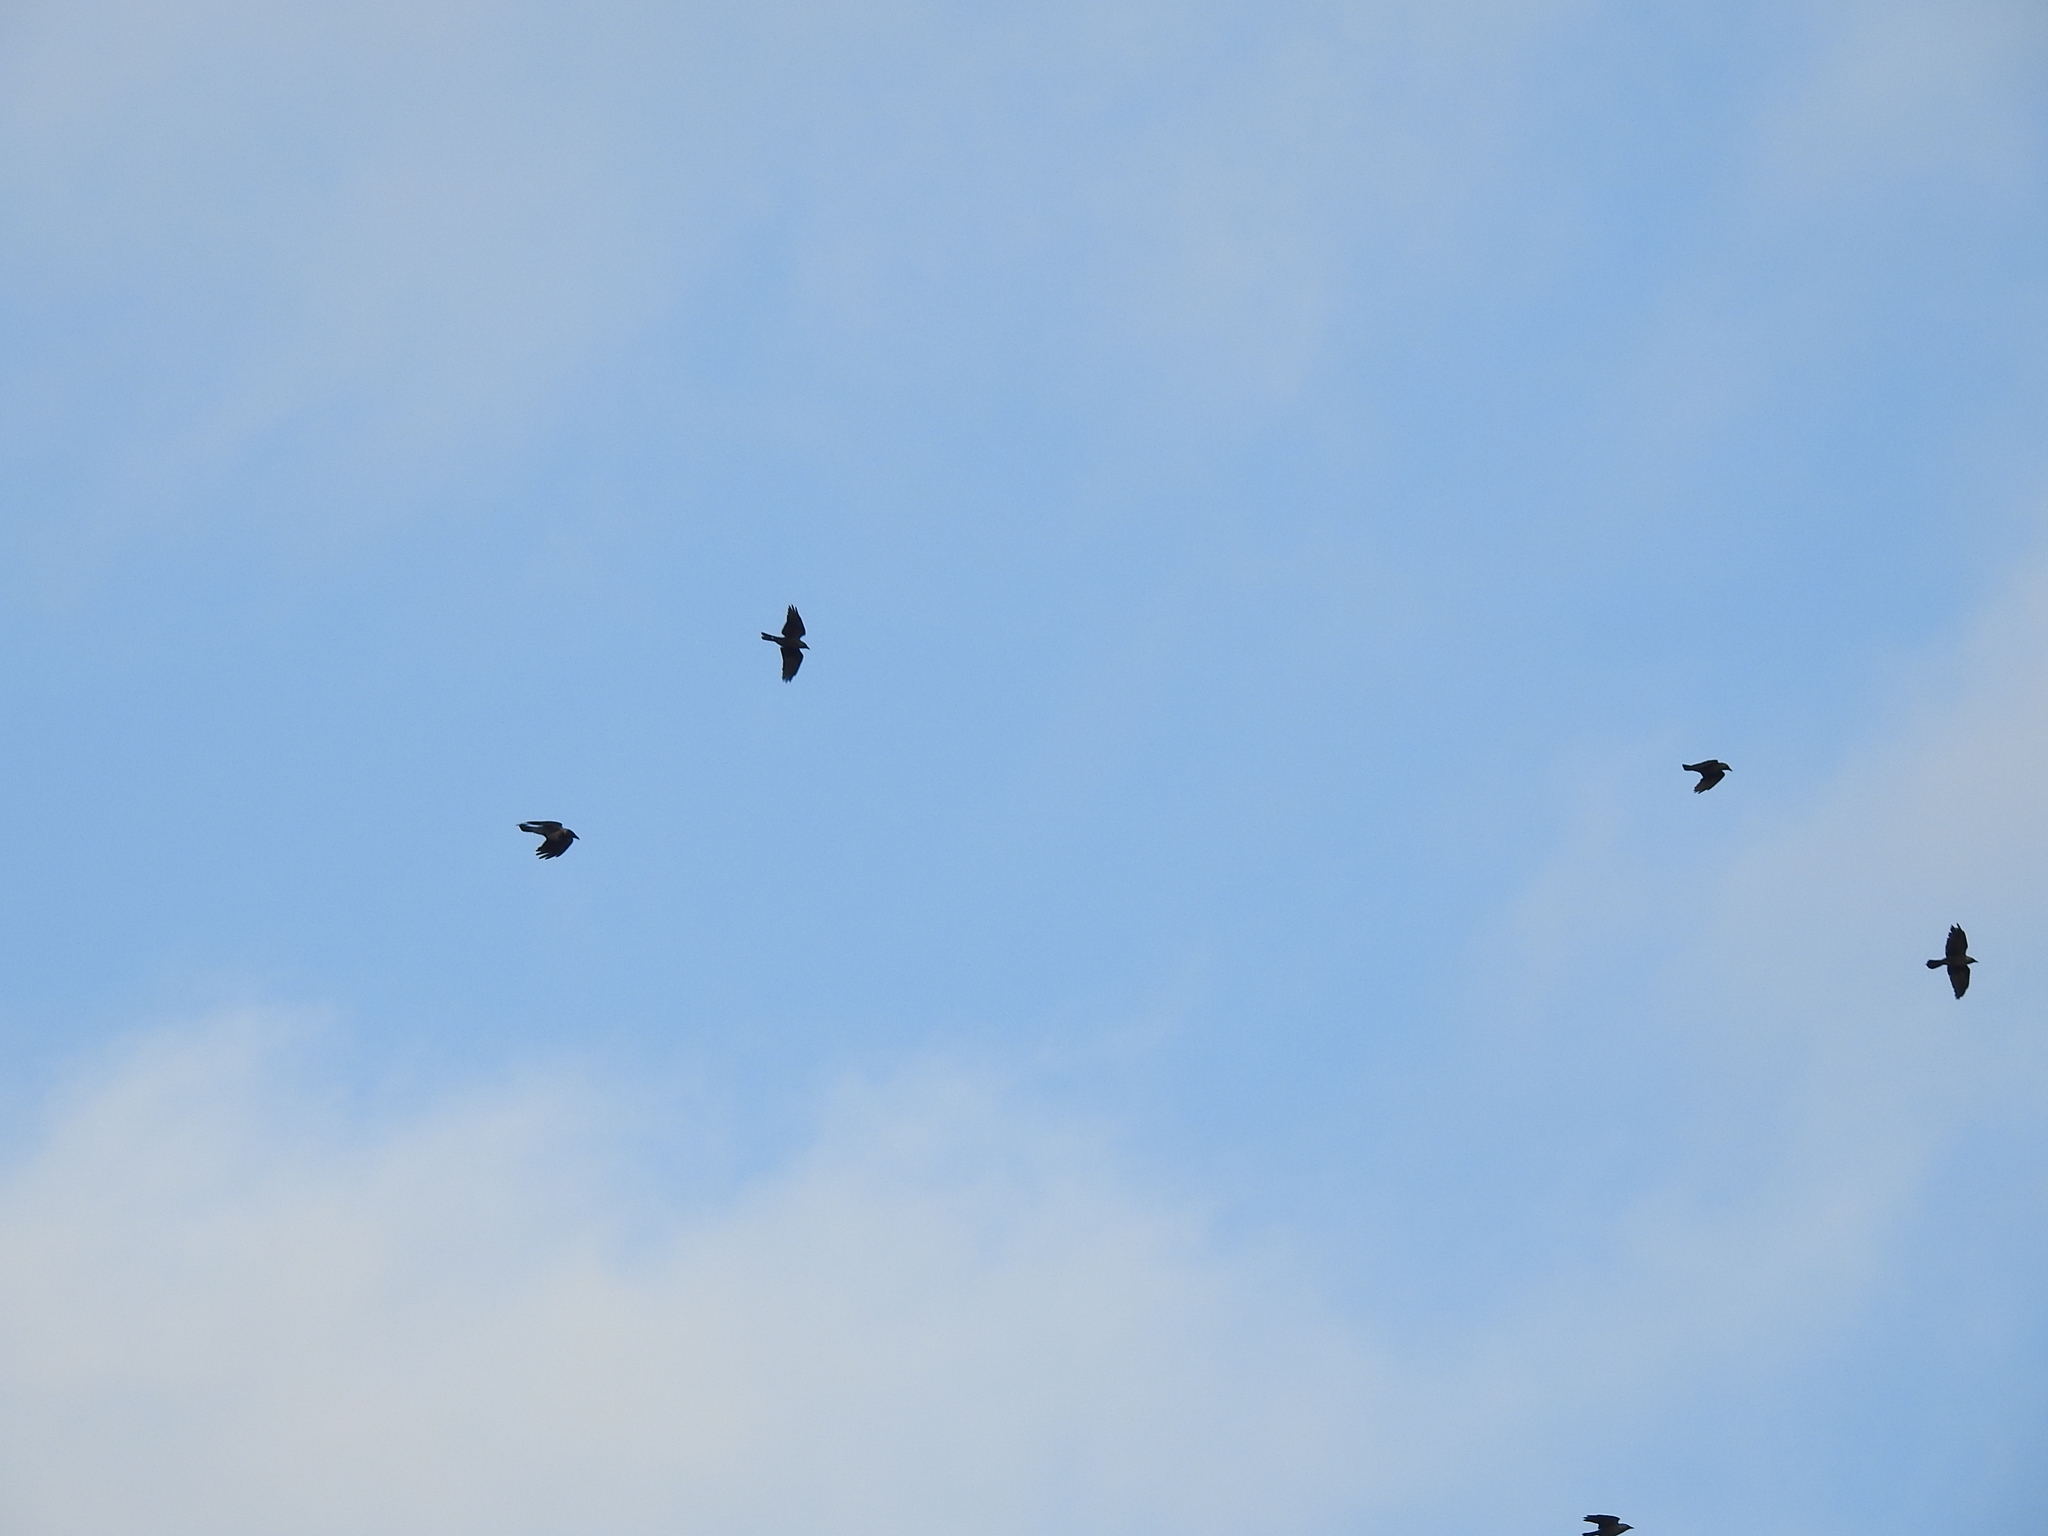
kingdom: Animalia
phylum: Chordata
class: Aves
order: Passeriformes
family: Corvidae
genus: Coloeus
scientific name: Coloeus monedula
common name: Western jackdaw
